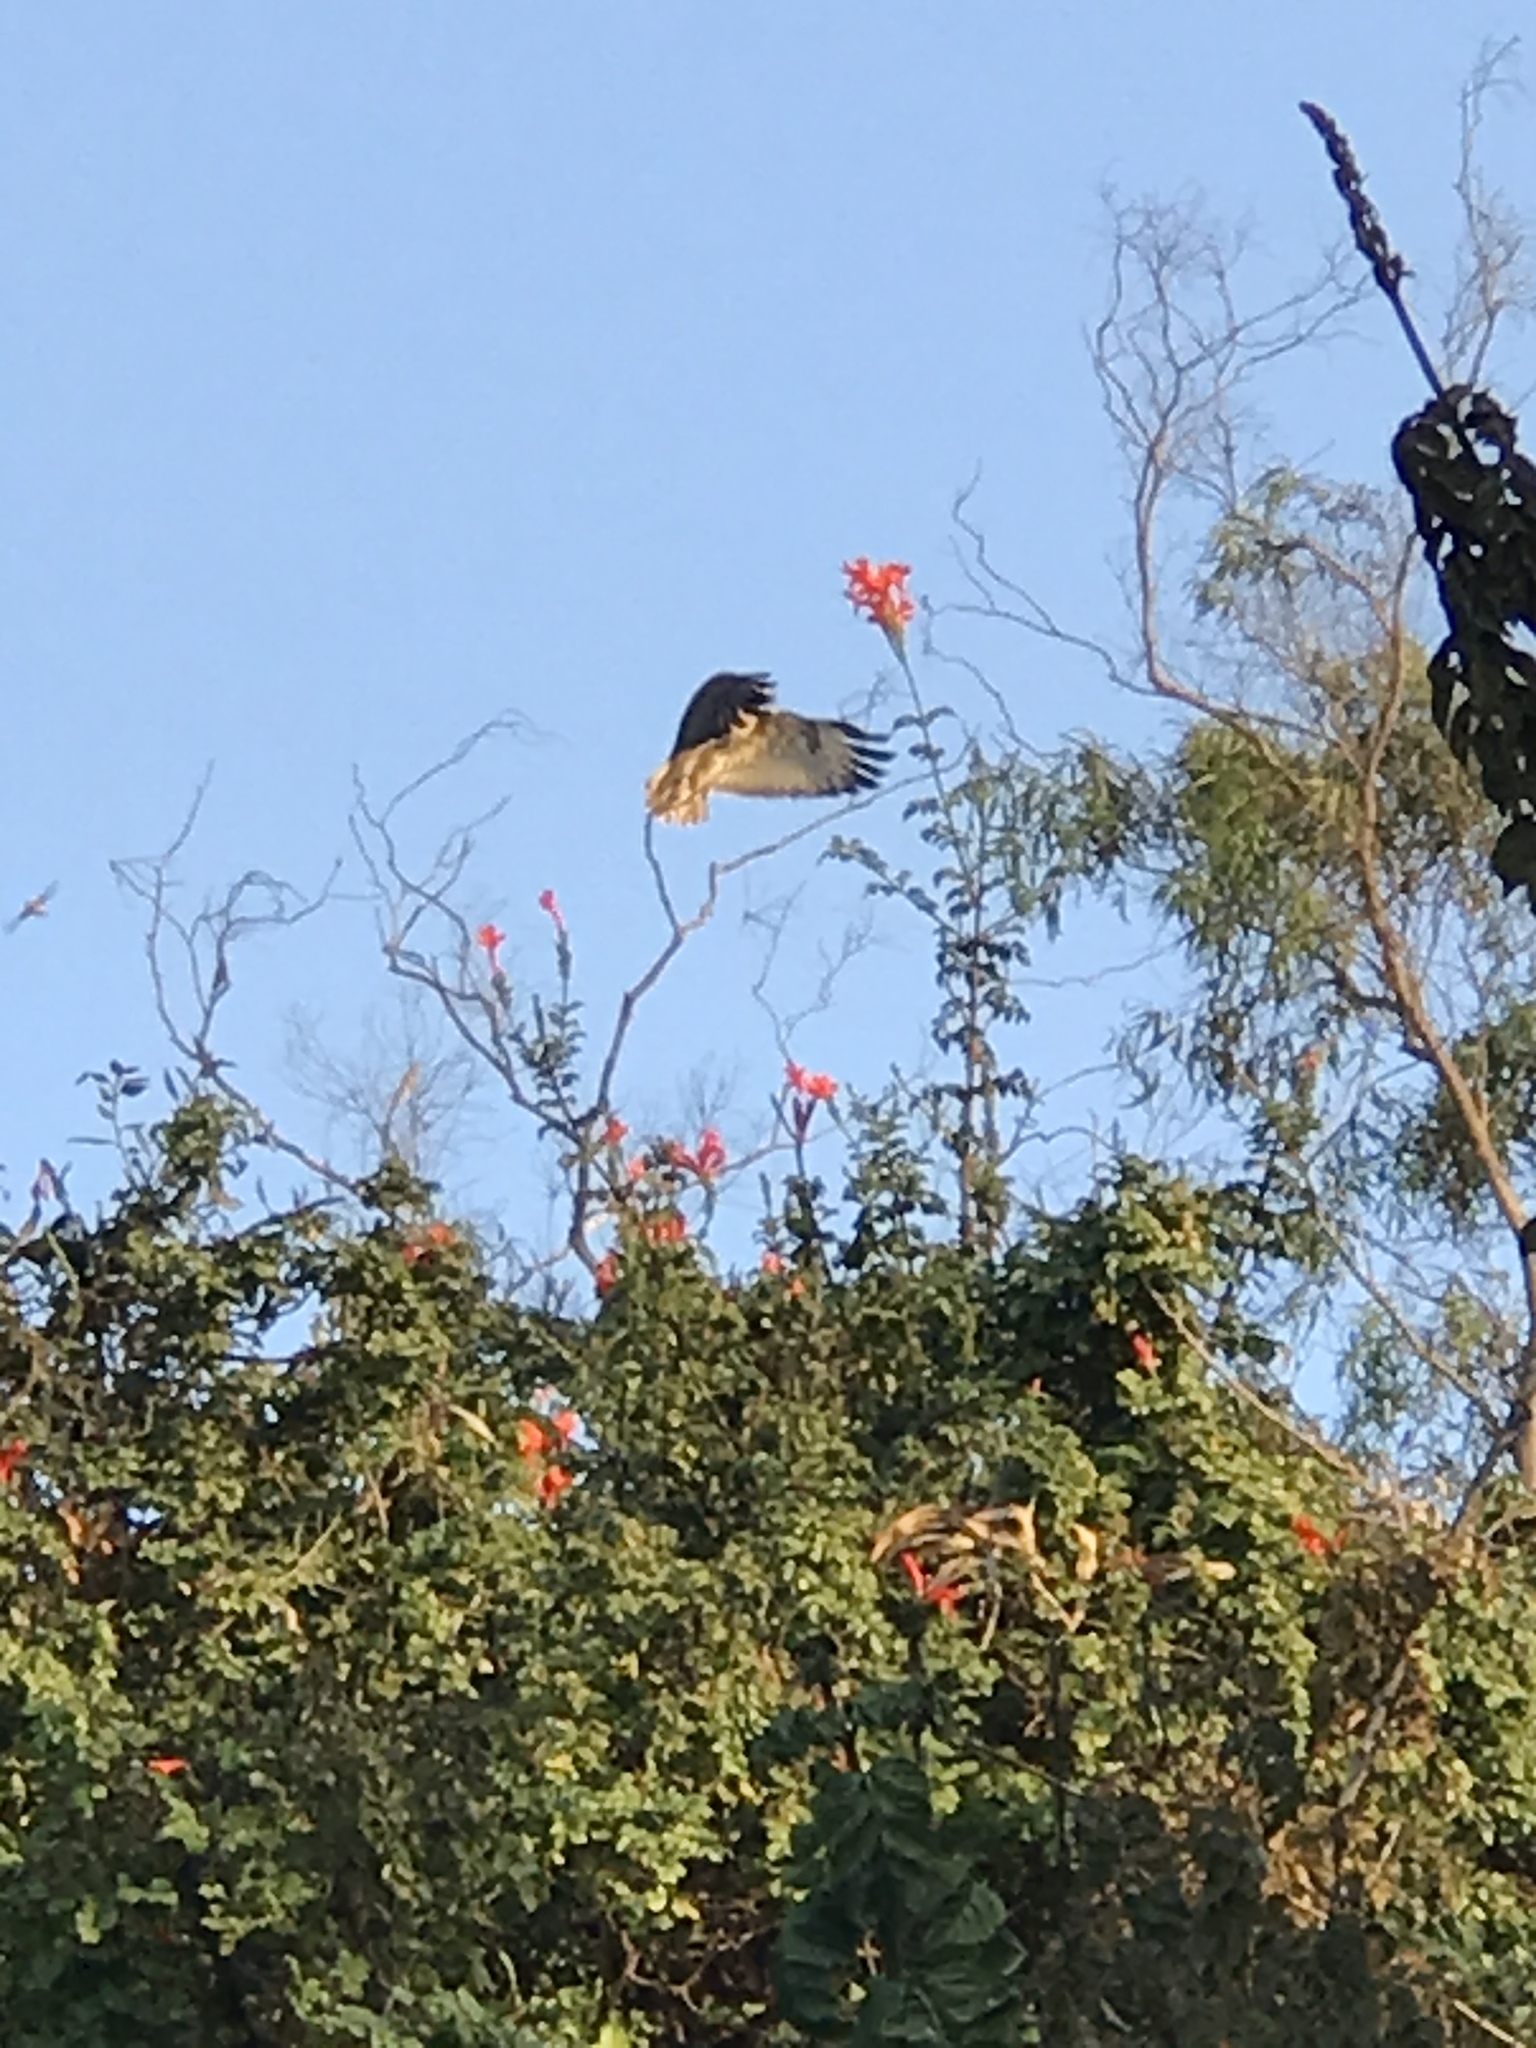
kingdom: Animalia
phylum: Chordata
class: Aves
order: Accipitriformes
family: Accipitridae
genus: Buteo
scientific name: Buteo jamaicensis
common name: Red-tailed hawk
